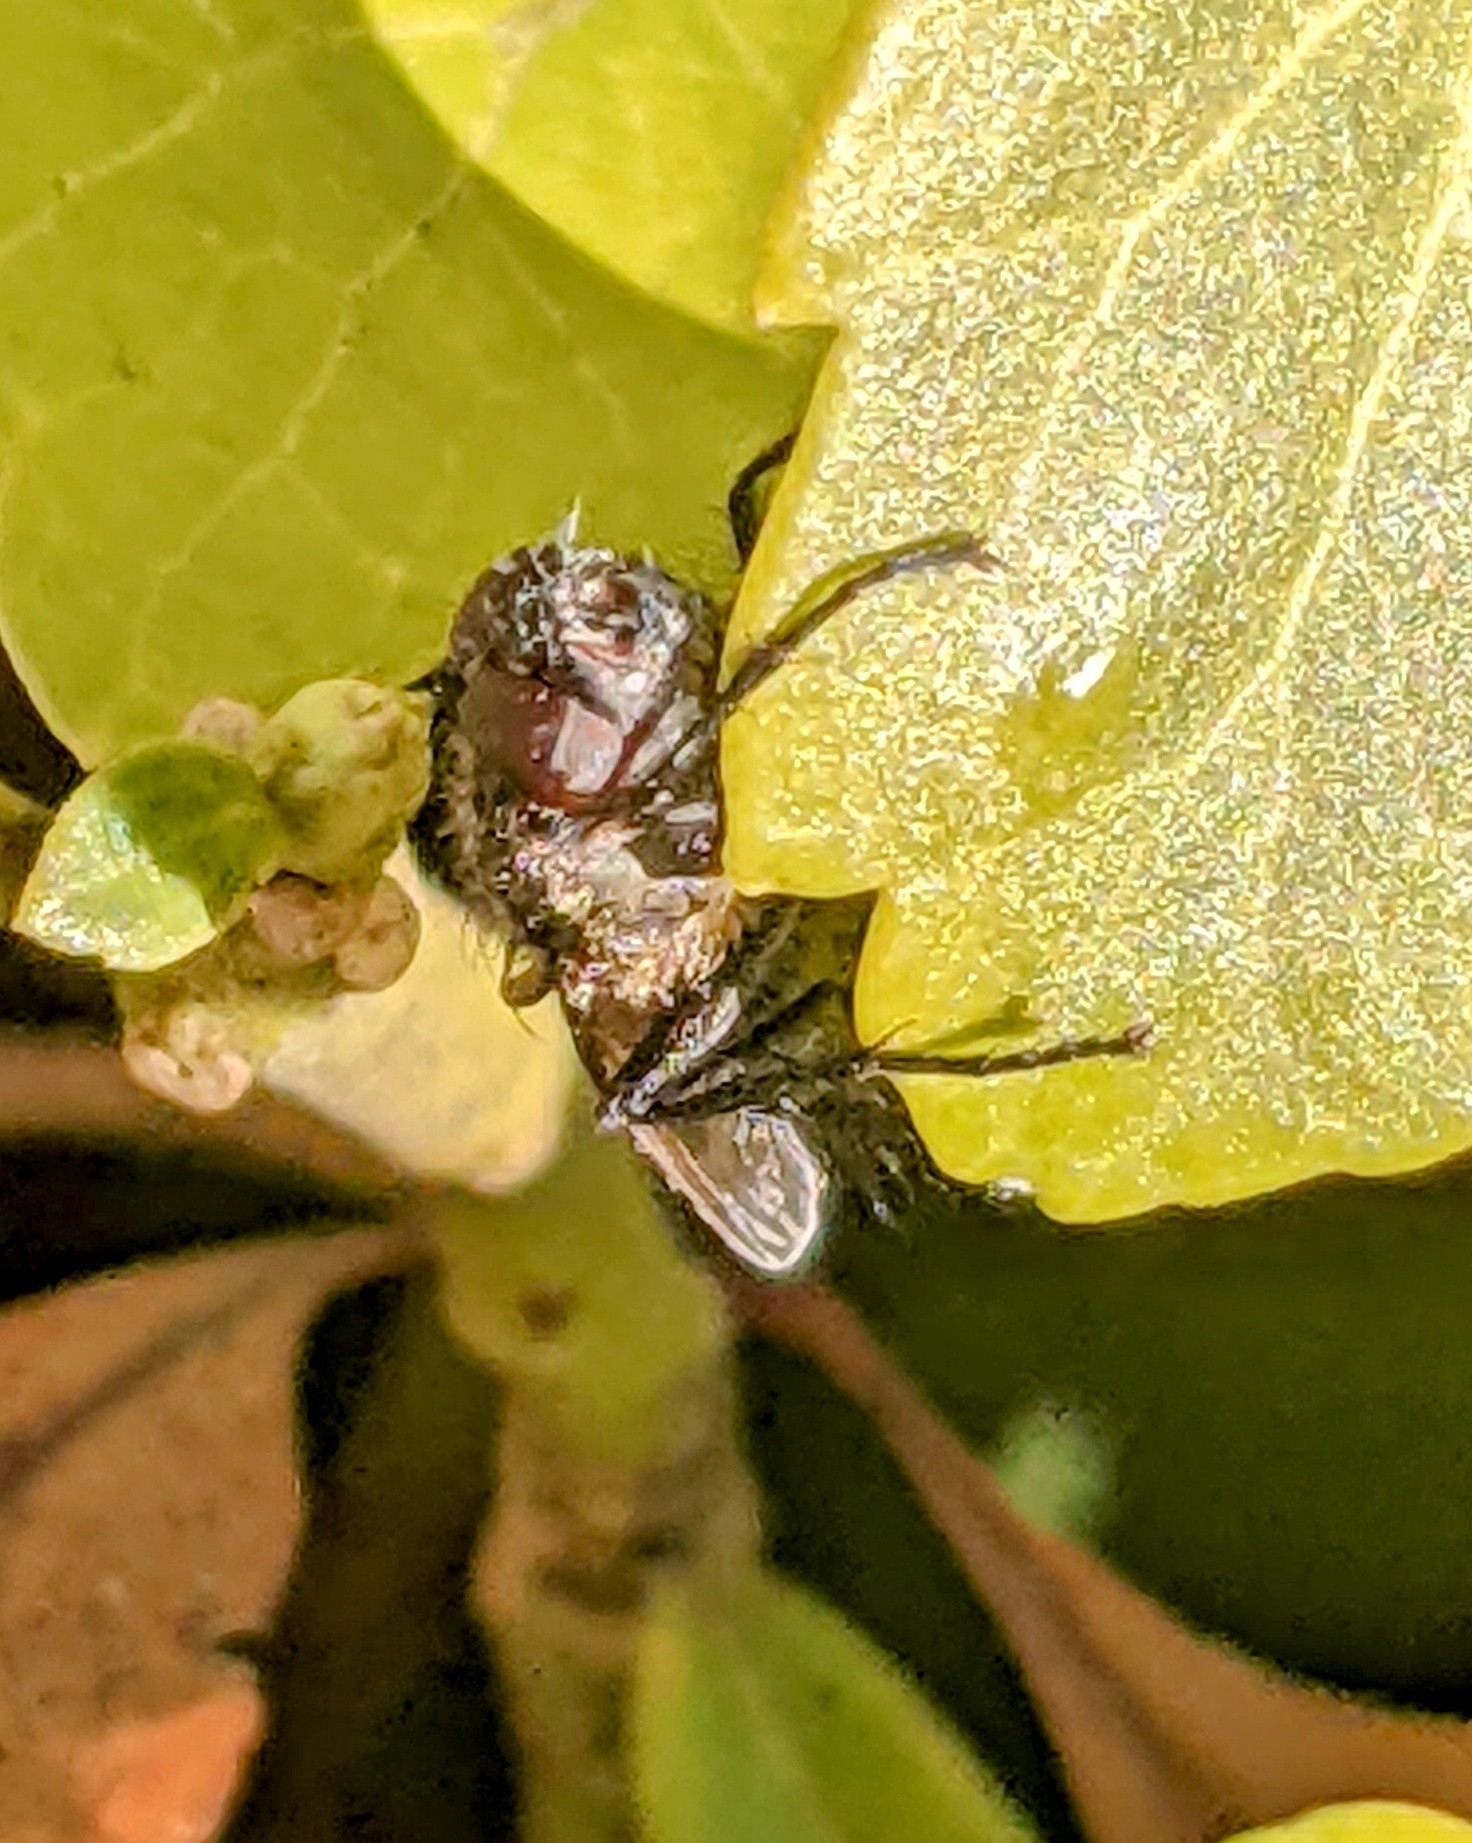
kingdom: Animalia
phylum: Arthropoda
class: Insecta
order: Diptera
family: Polleniidae
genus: Pollenia
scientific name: Pollenia vagabunda
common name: Vagabund cluster fly
